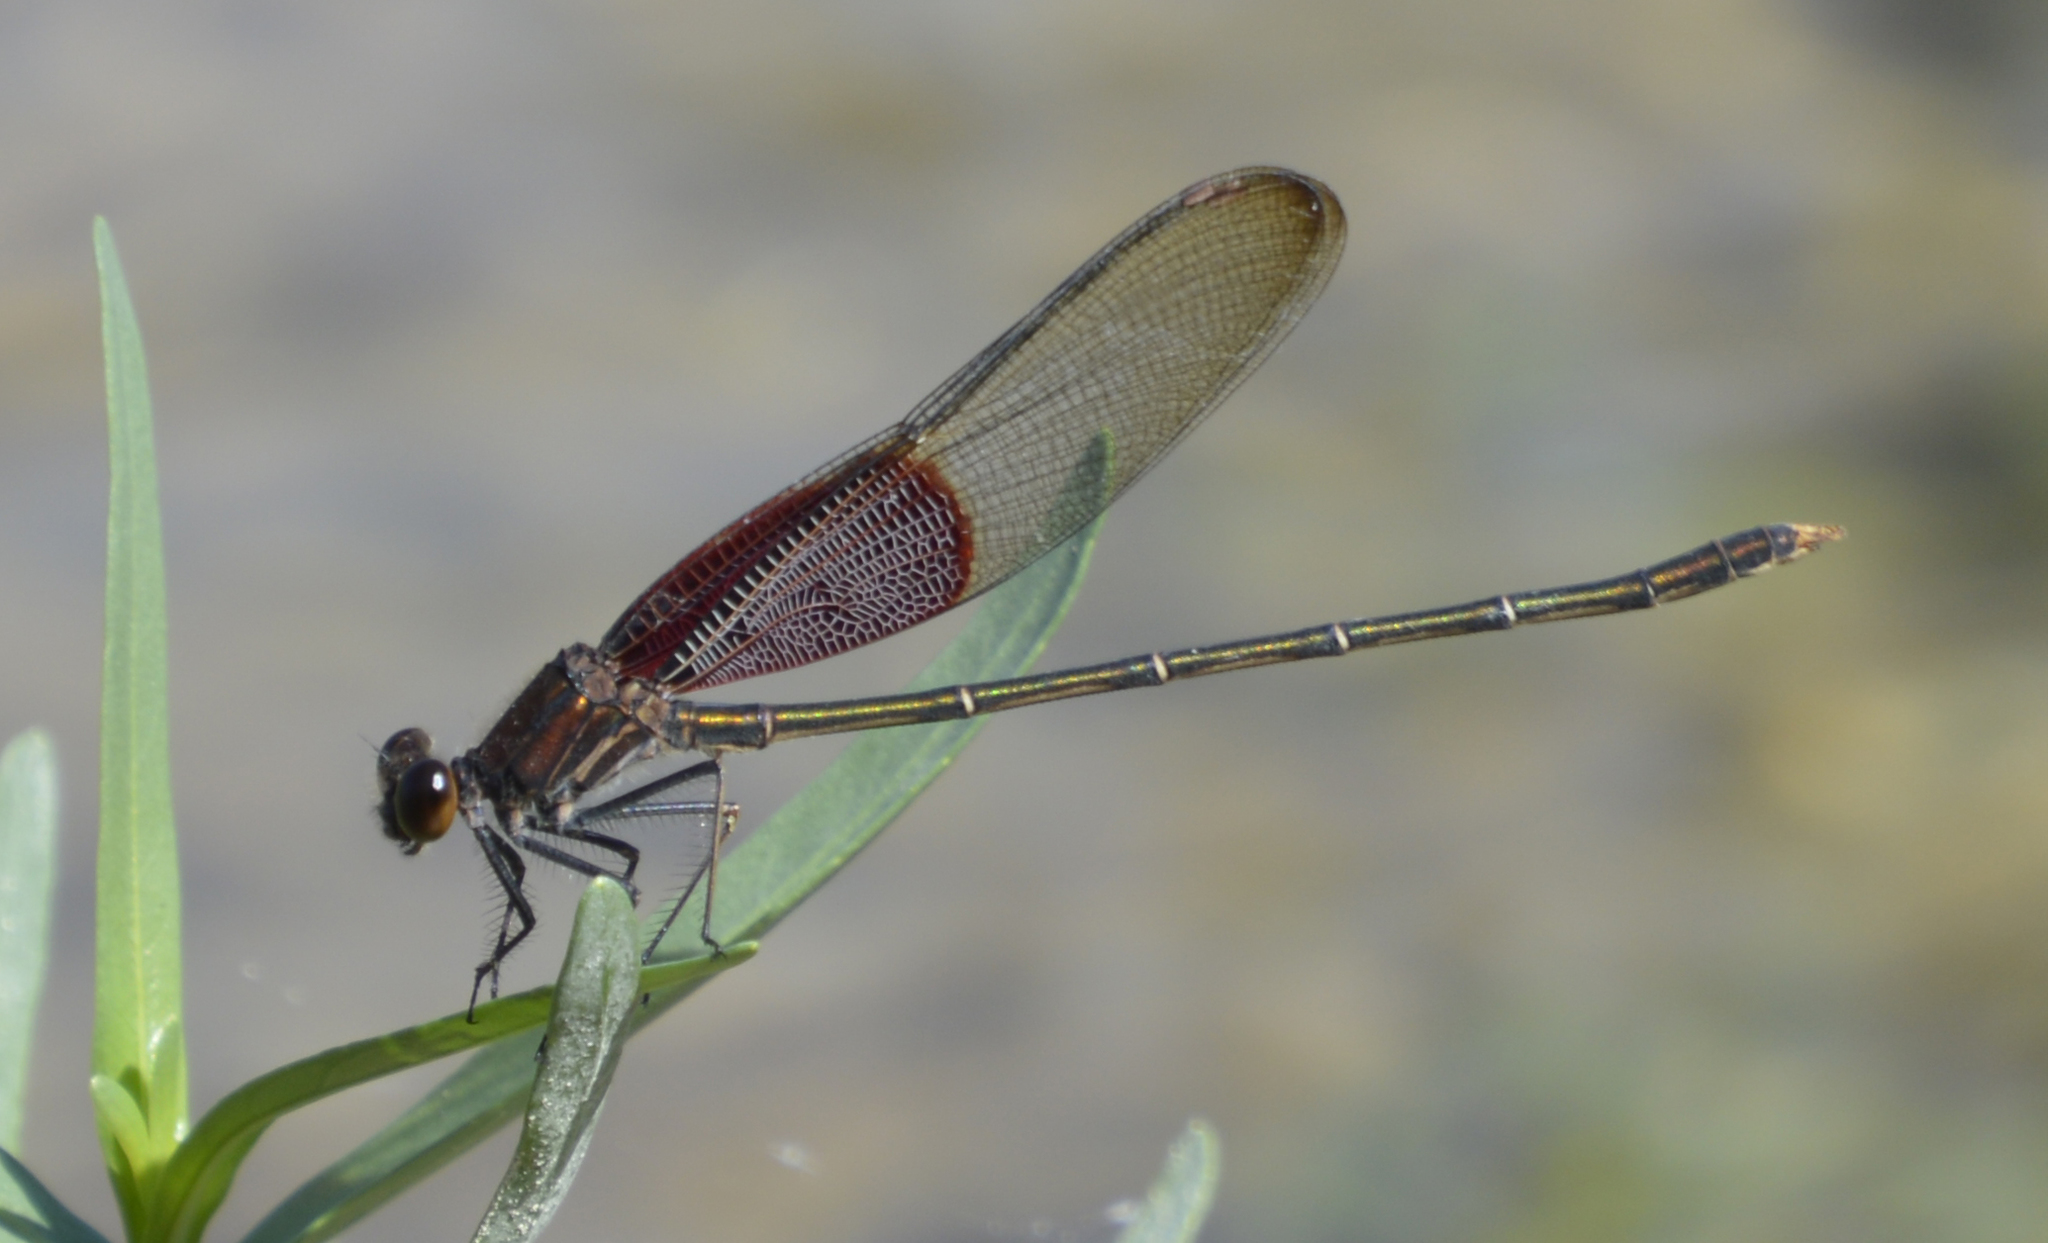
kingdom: Animalia
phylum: Arthropoda
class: Insecta
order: Odonata
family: Calopterygidae
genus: Hetaerina
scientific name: Hetaerina americana
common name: American rubyspot
